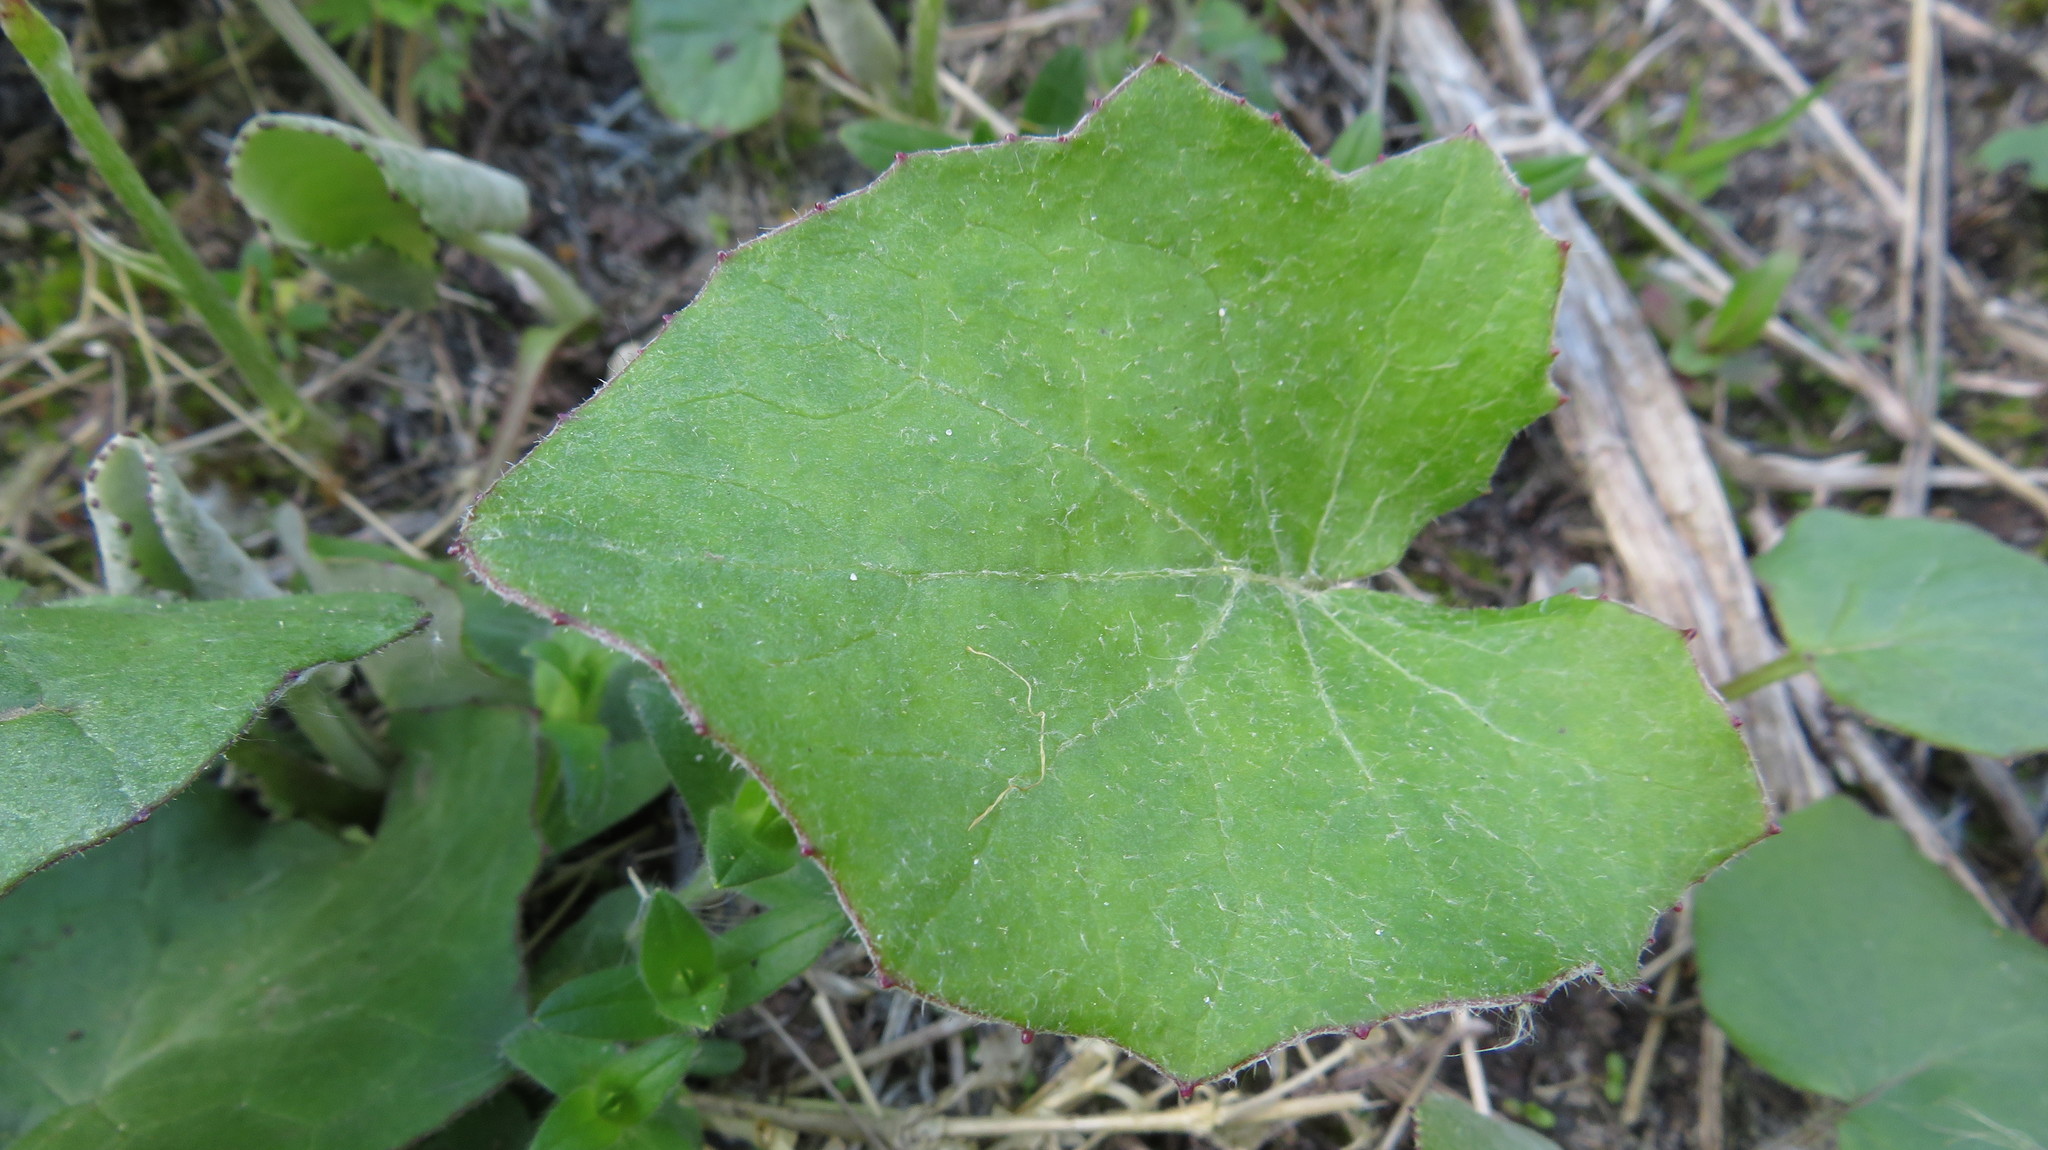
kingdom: Plantae
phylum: Tracheophyta
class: Magnoliopsida
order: Asterales
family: Asteraceae
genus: Tussilago
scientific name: Tussilago farfara
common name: Coltsfoot
